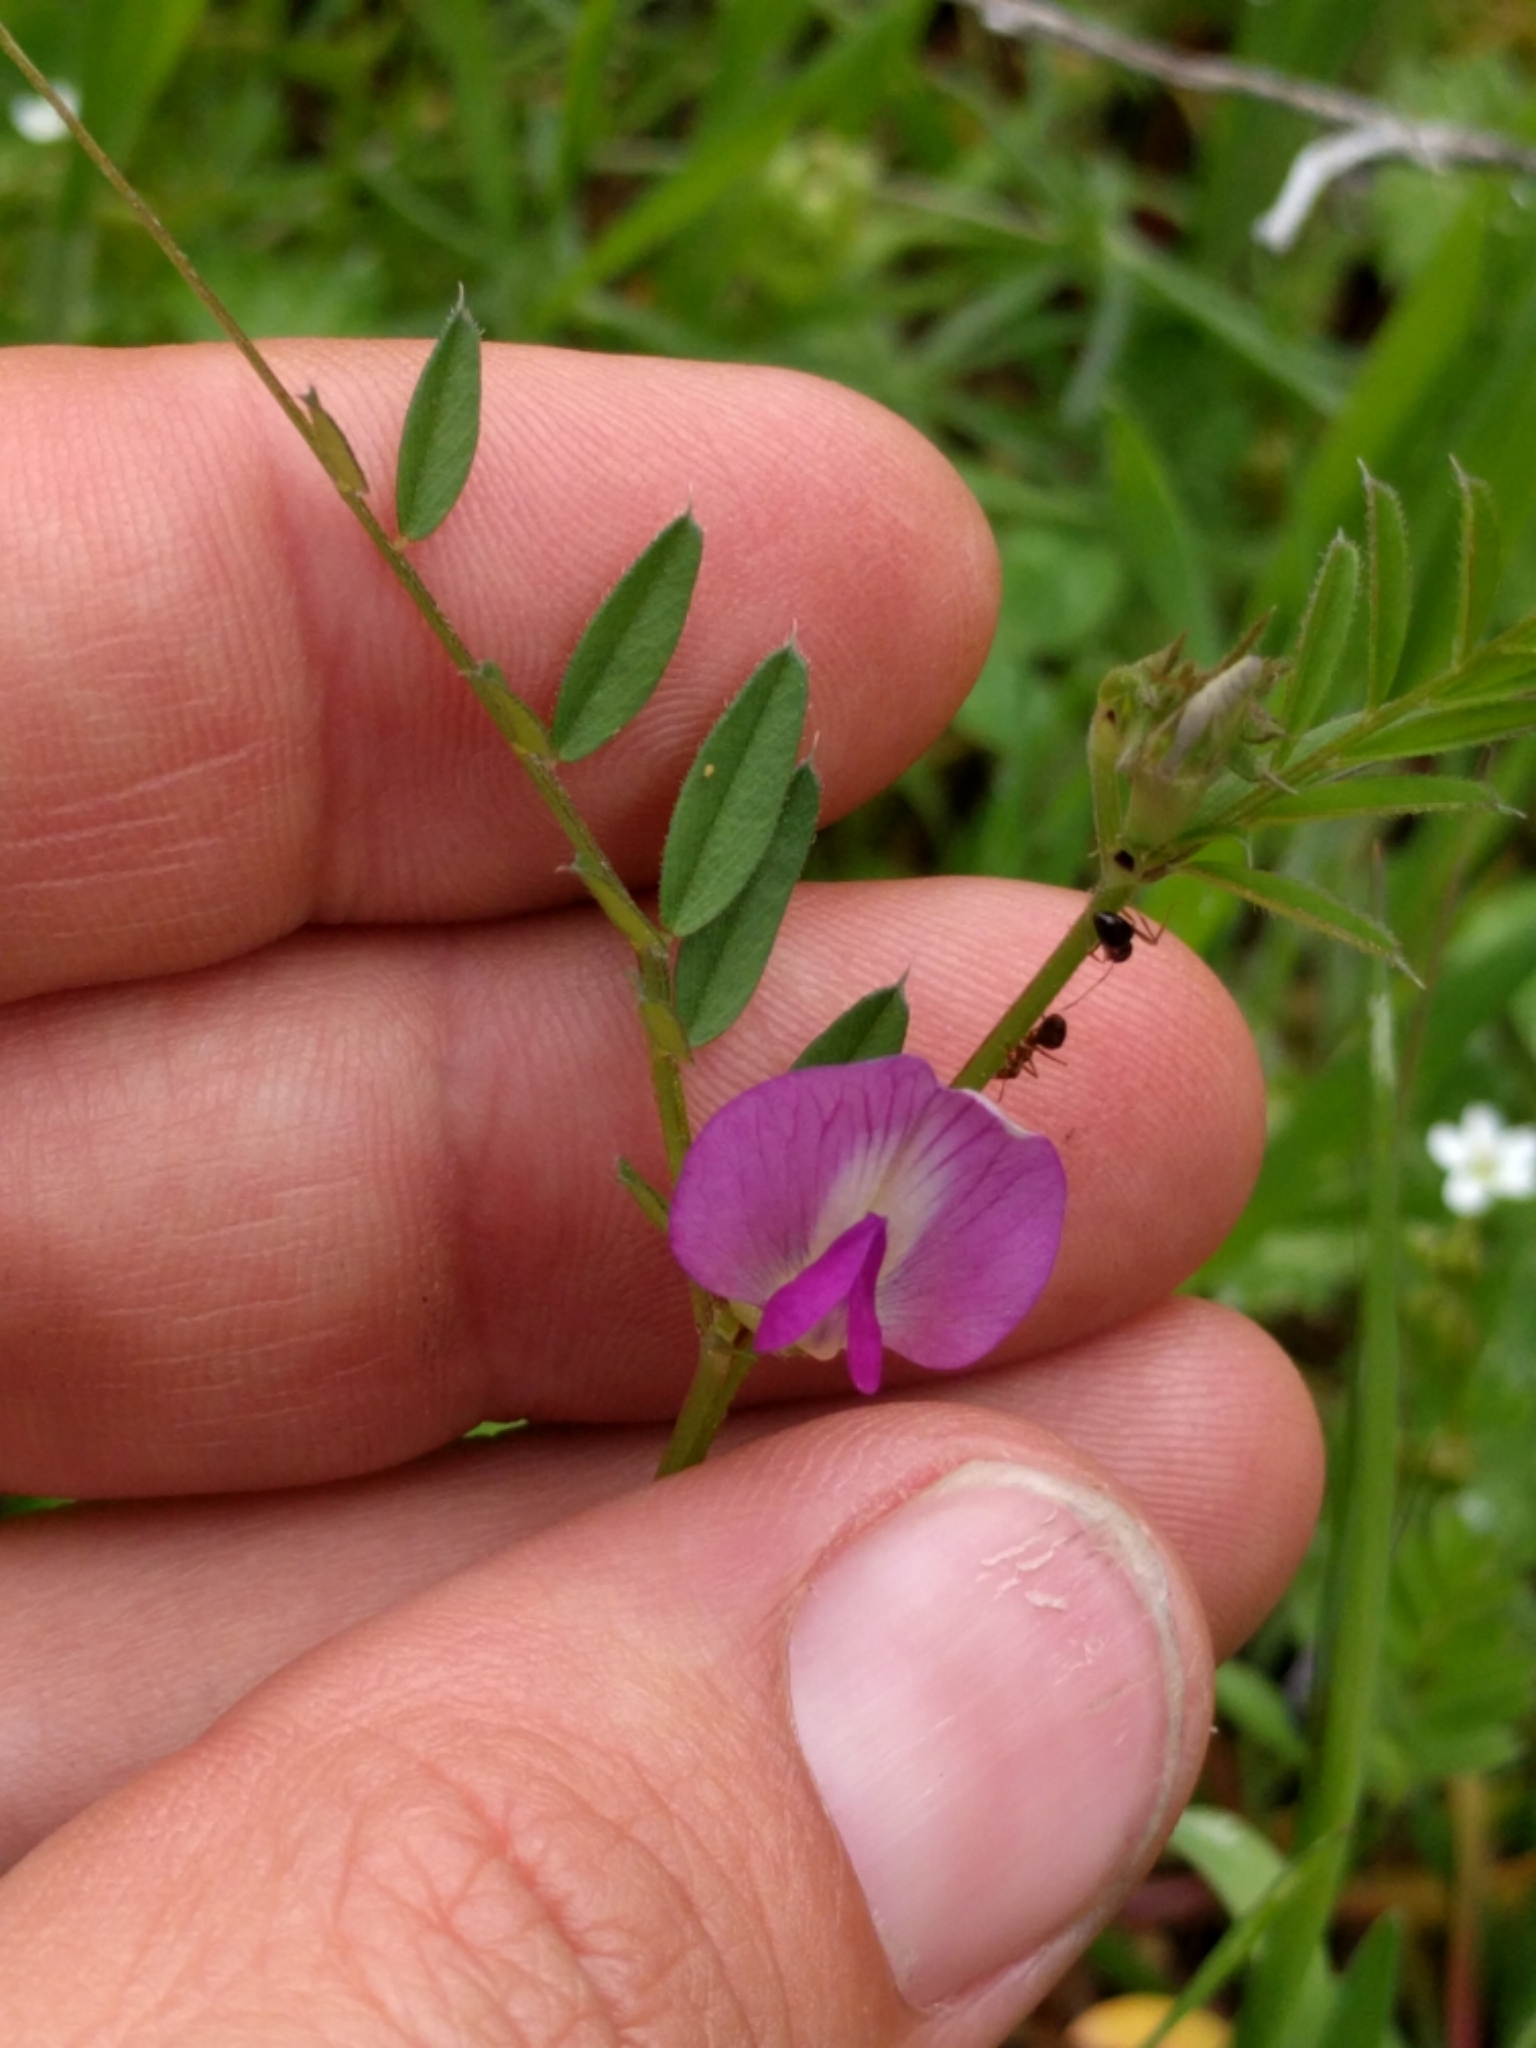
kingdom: Plantae
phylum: Tracheophyta
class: Magnoliopsida
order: Fabales
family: Fabaceae
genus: Vicia
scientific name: Vicia sativa
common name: Garden vetch
